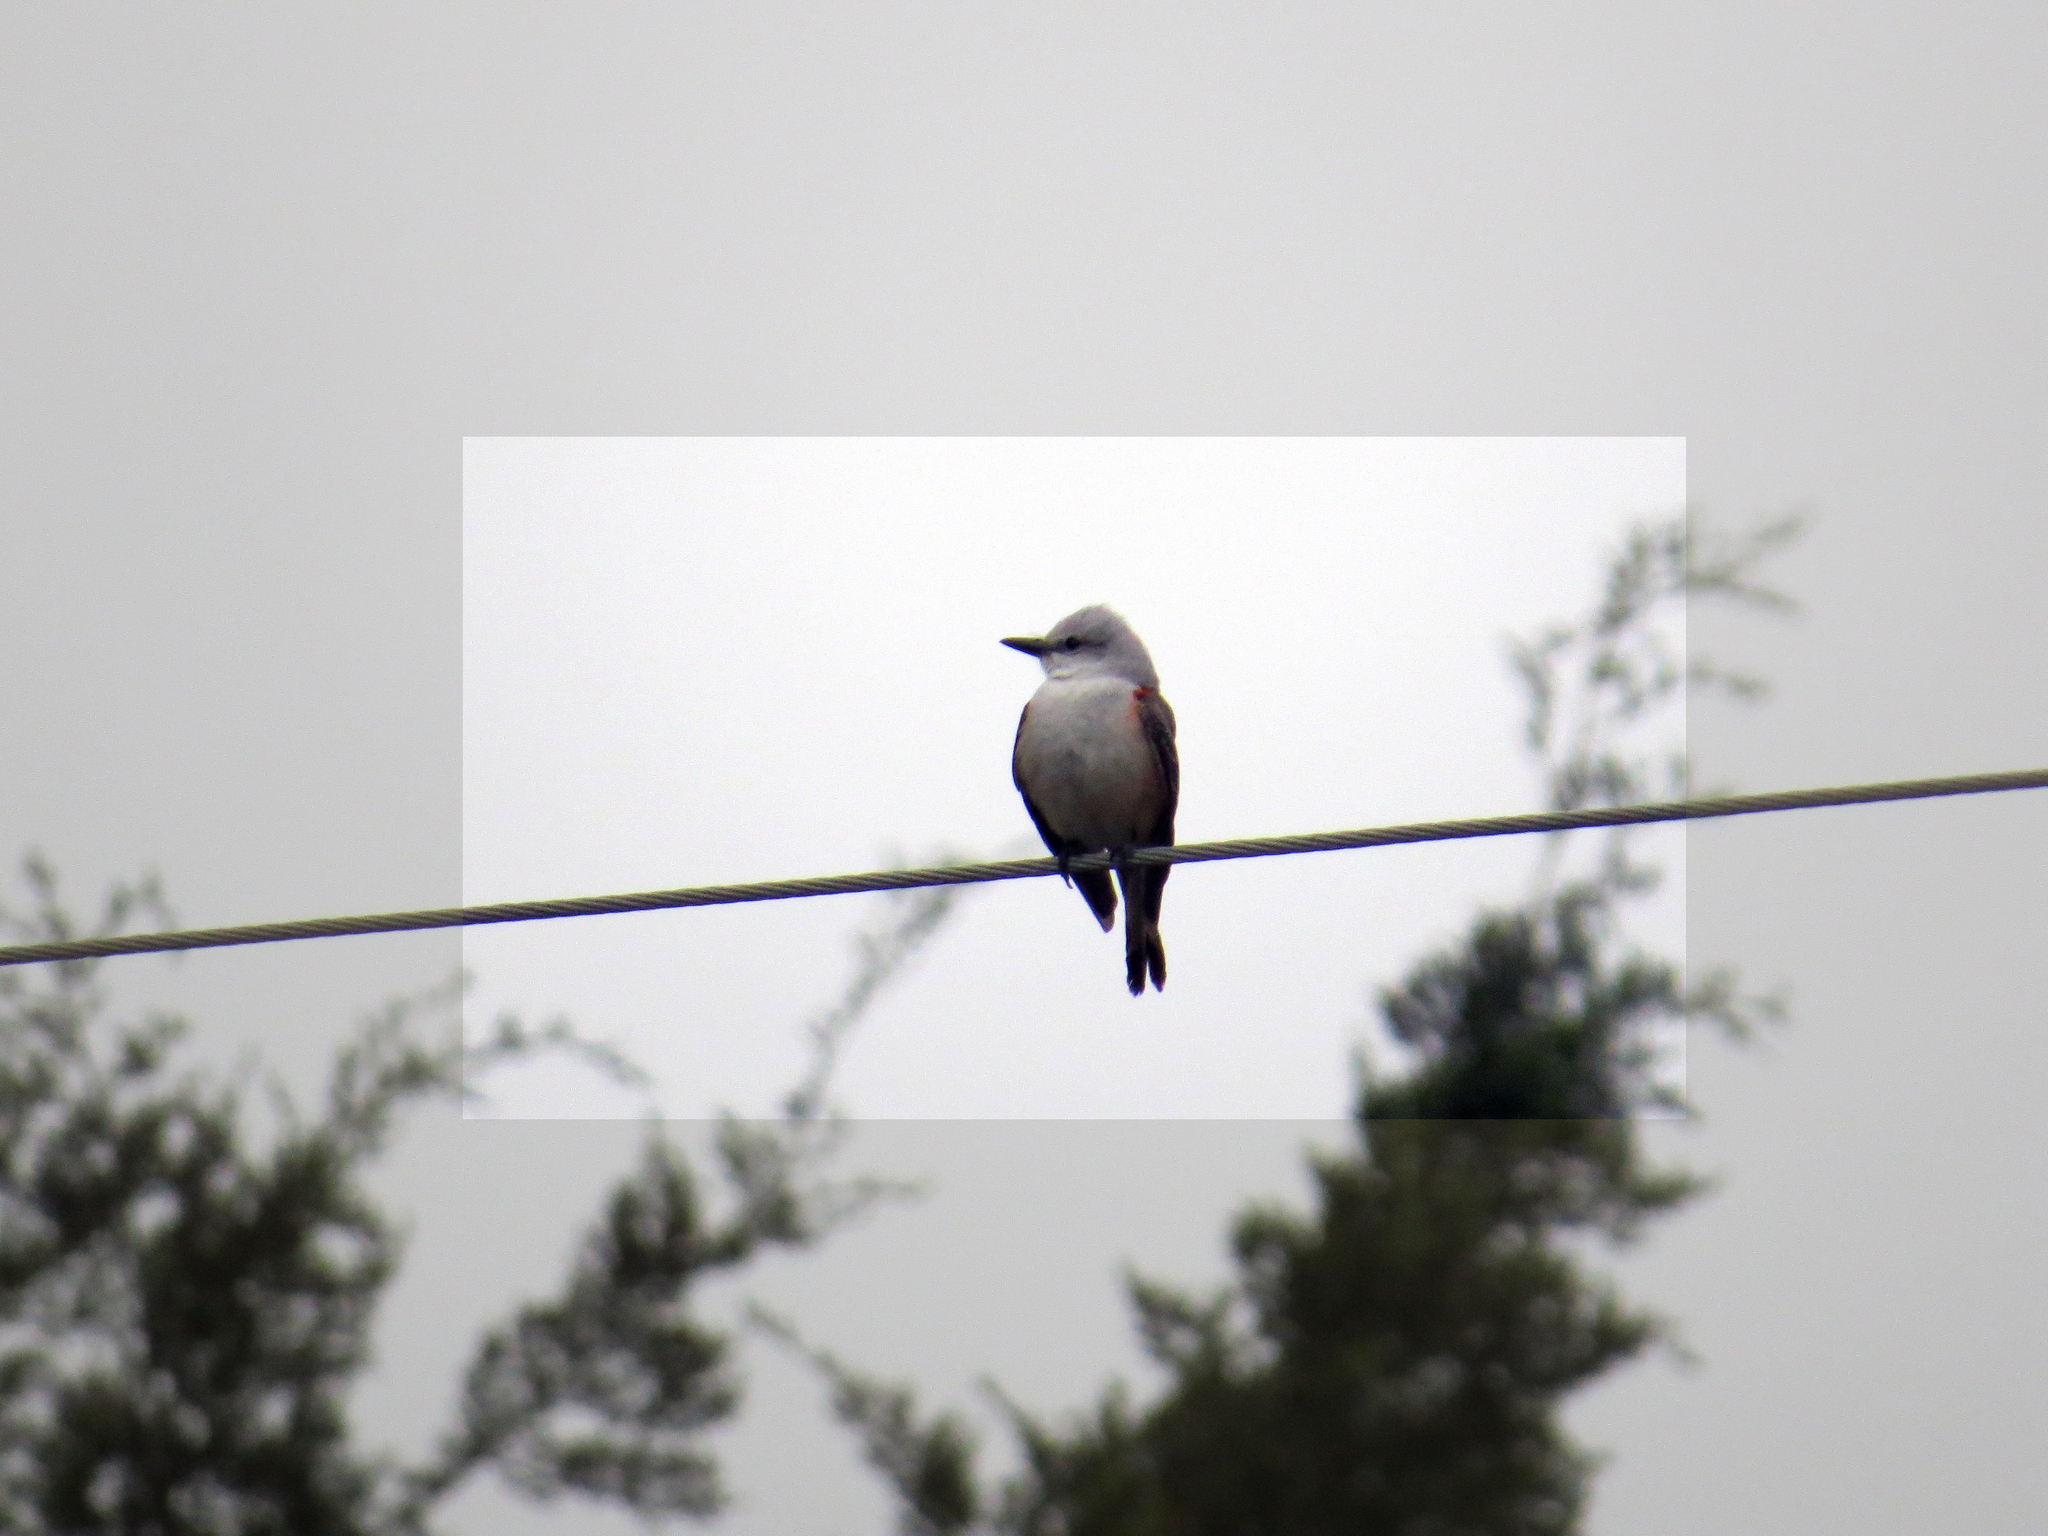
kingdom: Animalia
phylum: Chordata
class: Aves
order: Passeriformes
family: Tyrannidae
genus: Tyrannus
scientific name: Tyrannus forficatus
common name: Scissor-tailed flycatcher
